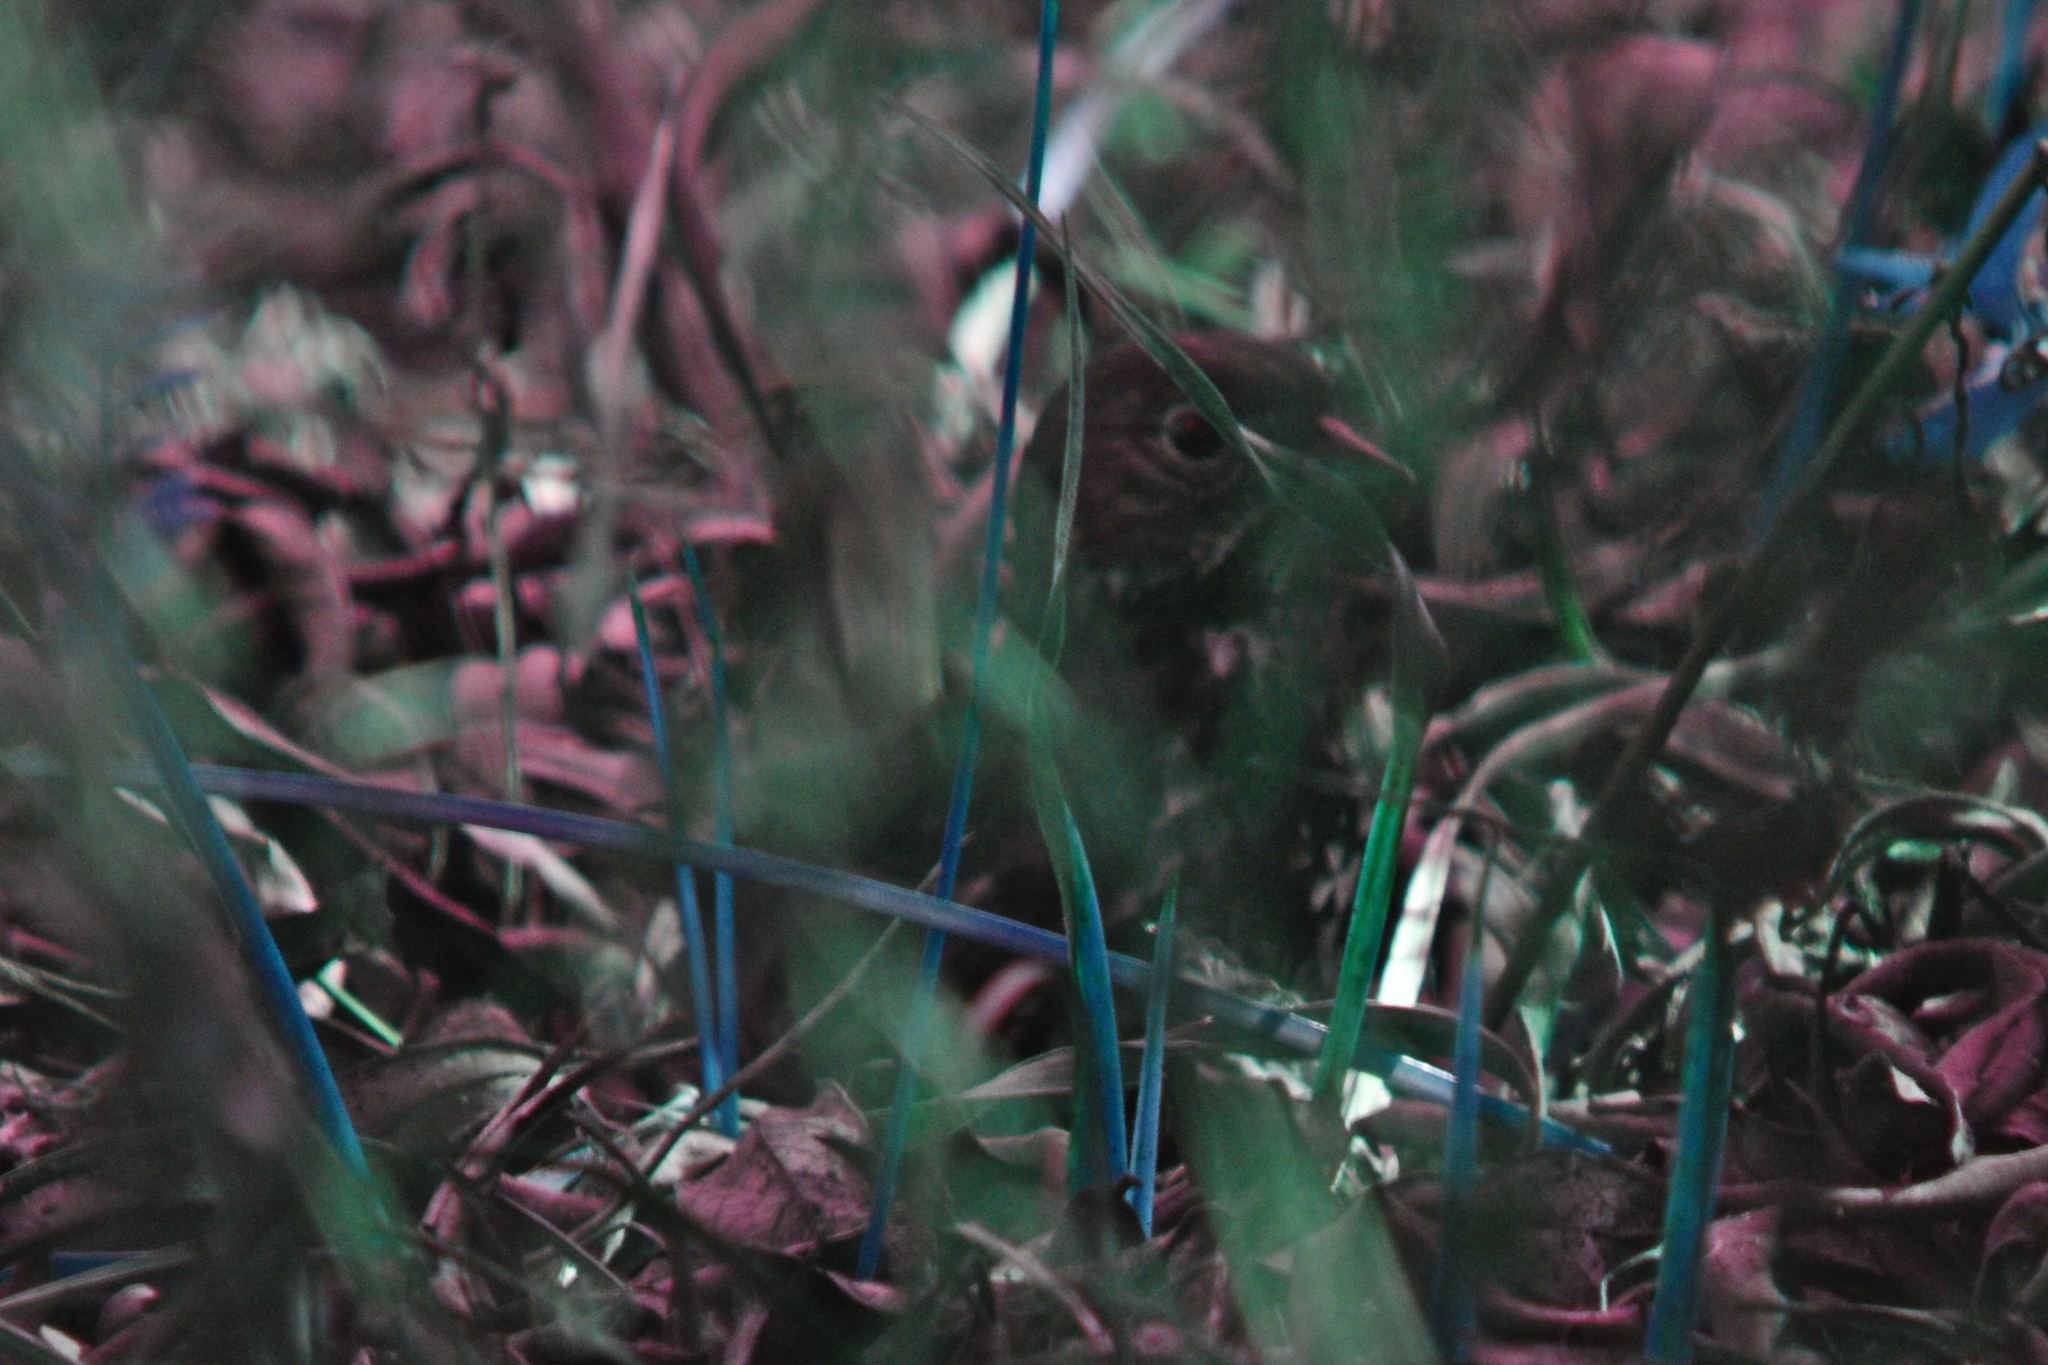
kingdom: Animalia
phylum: Chordata
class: Aves
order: Passeriformes
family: Passerellidae
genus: Passerella
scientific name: Passerella iliaca
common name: Fox sparrow
